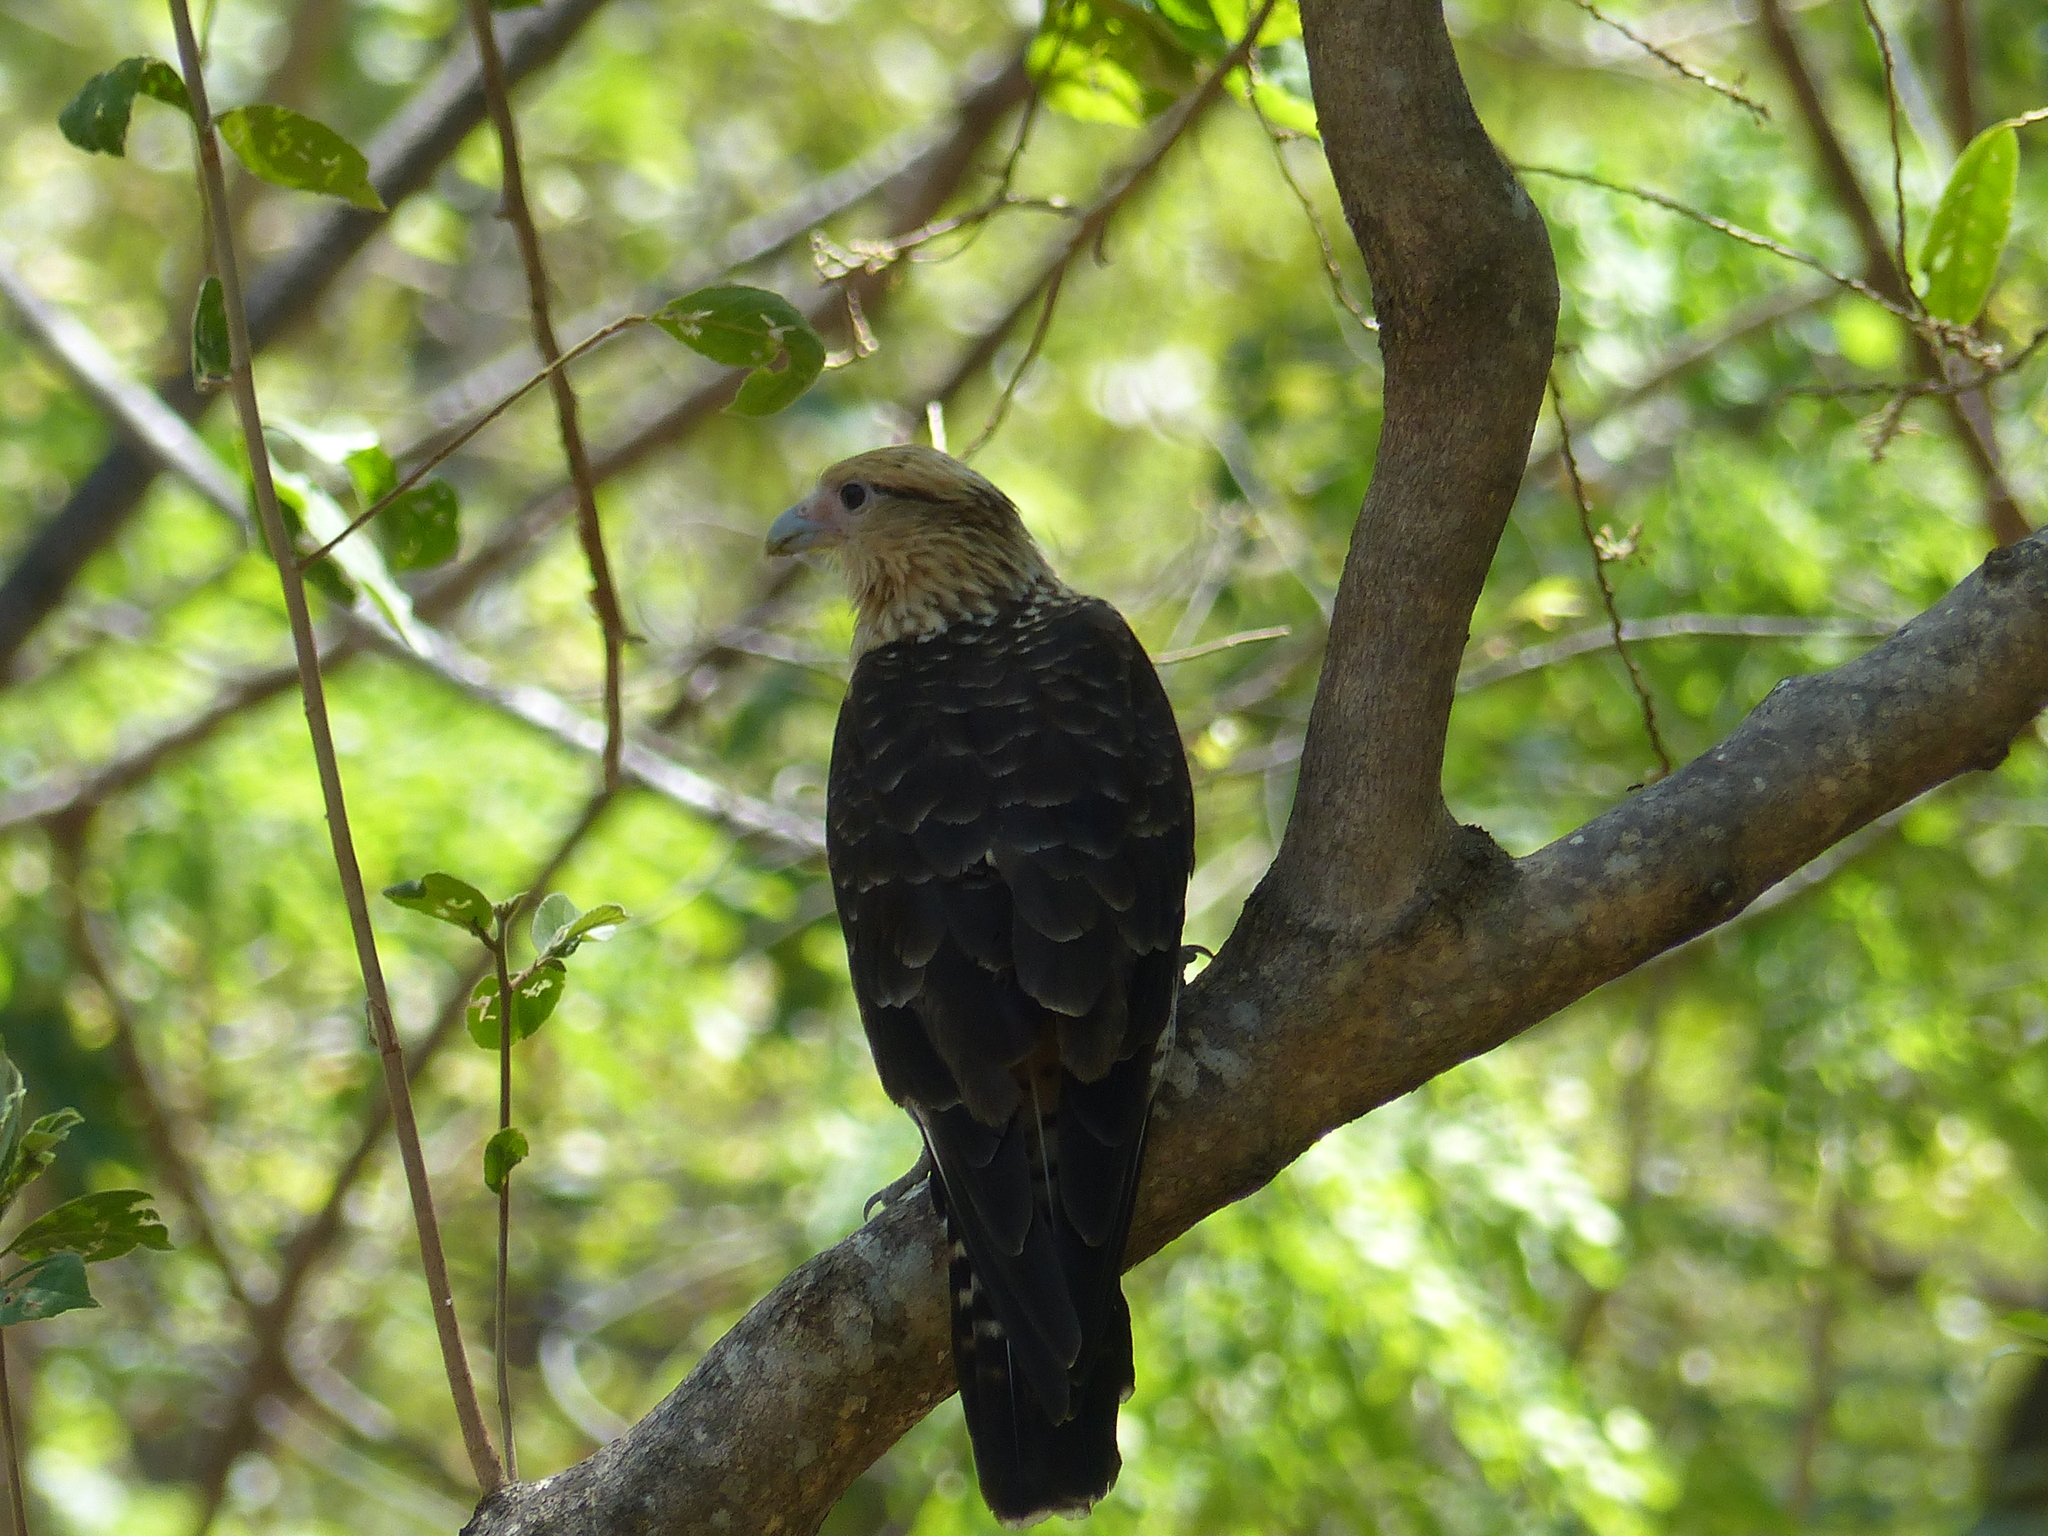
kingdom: Animalia
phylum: Chordata
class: Aves
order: Falconiformes
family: Falconidae
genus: Daptrius
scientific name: Daptrius
